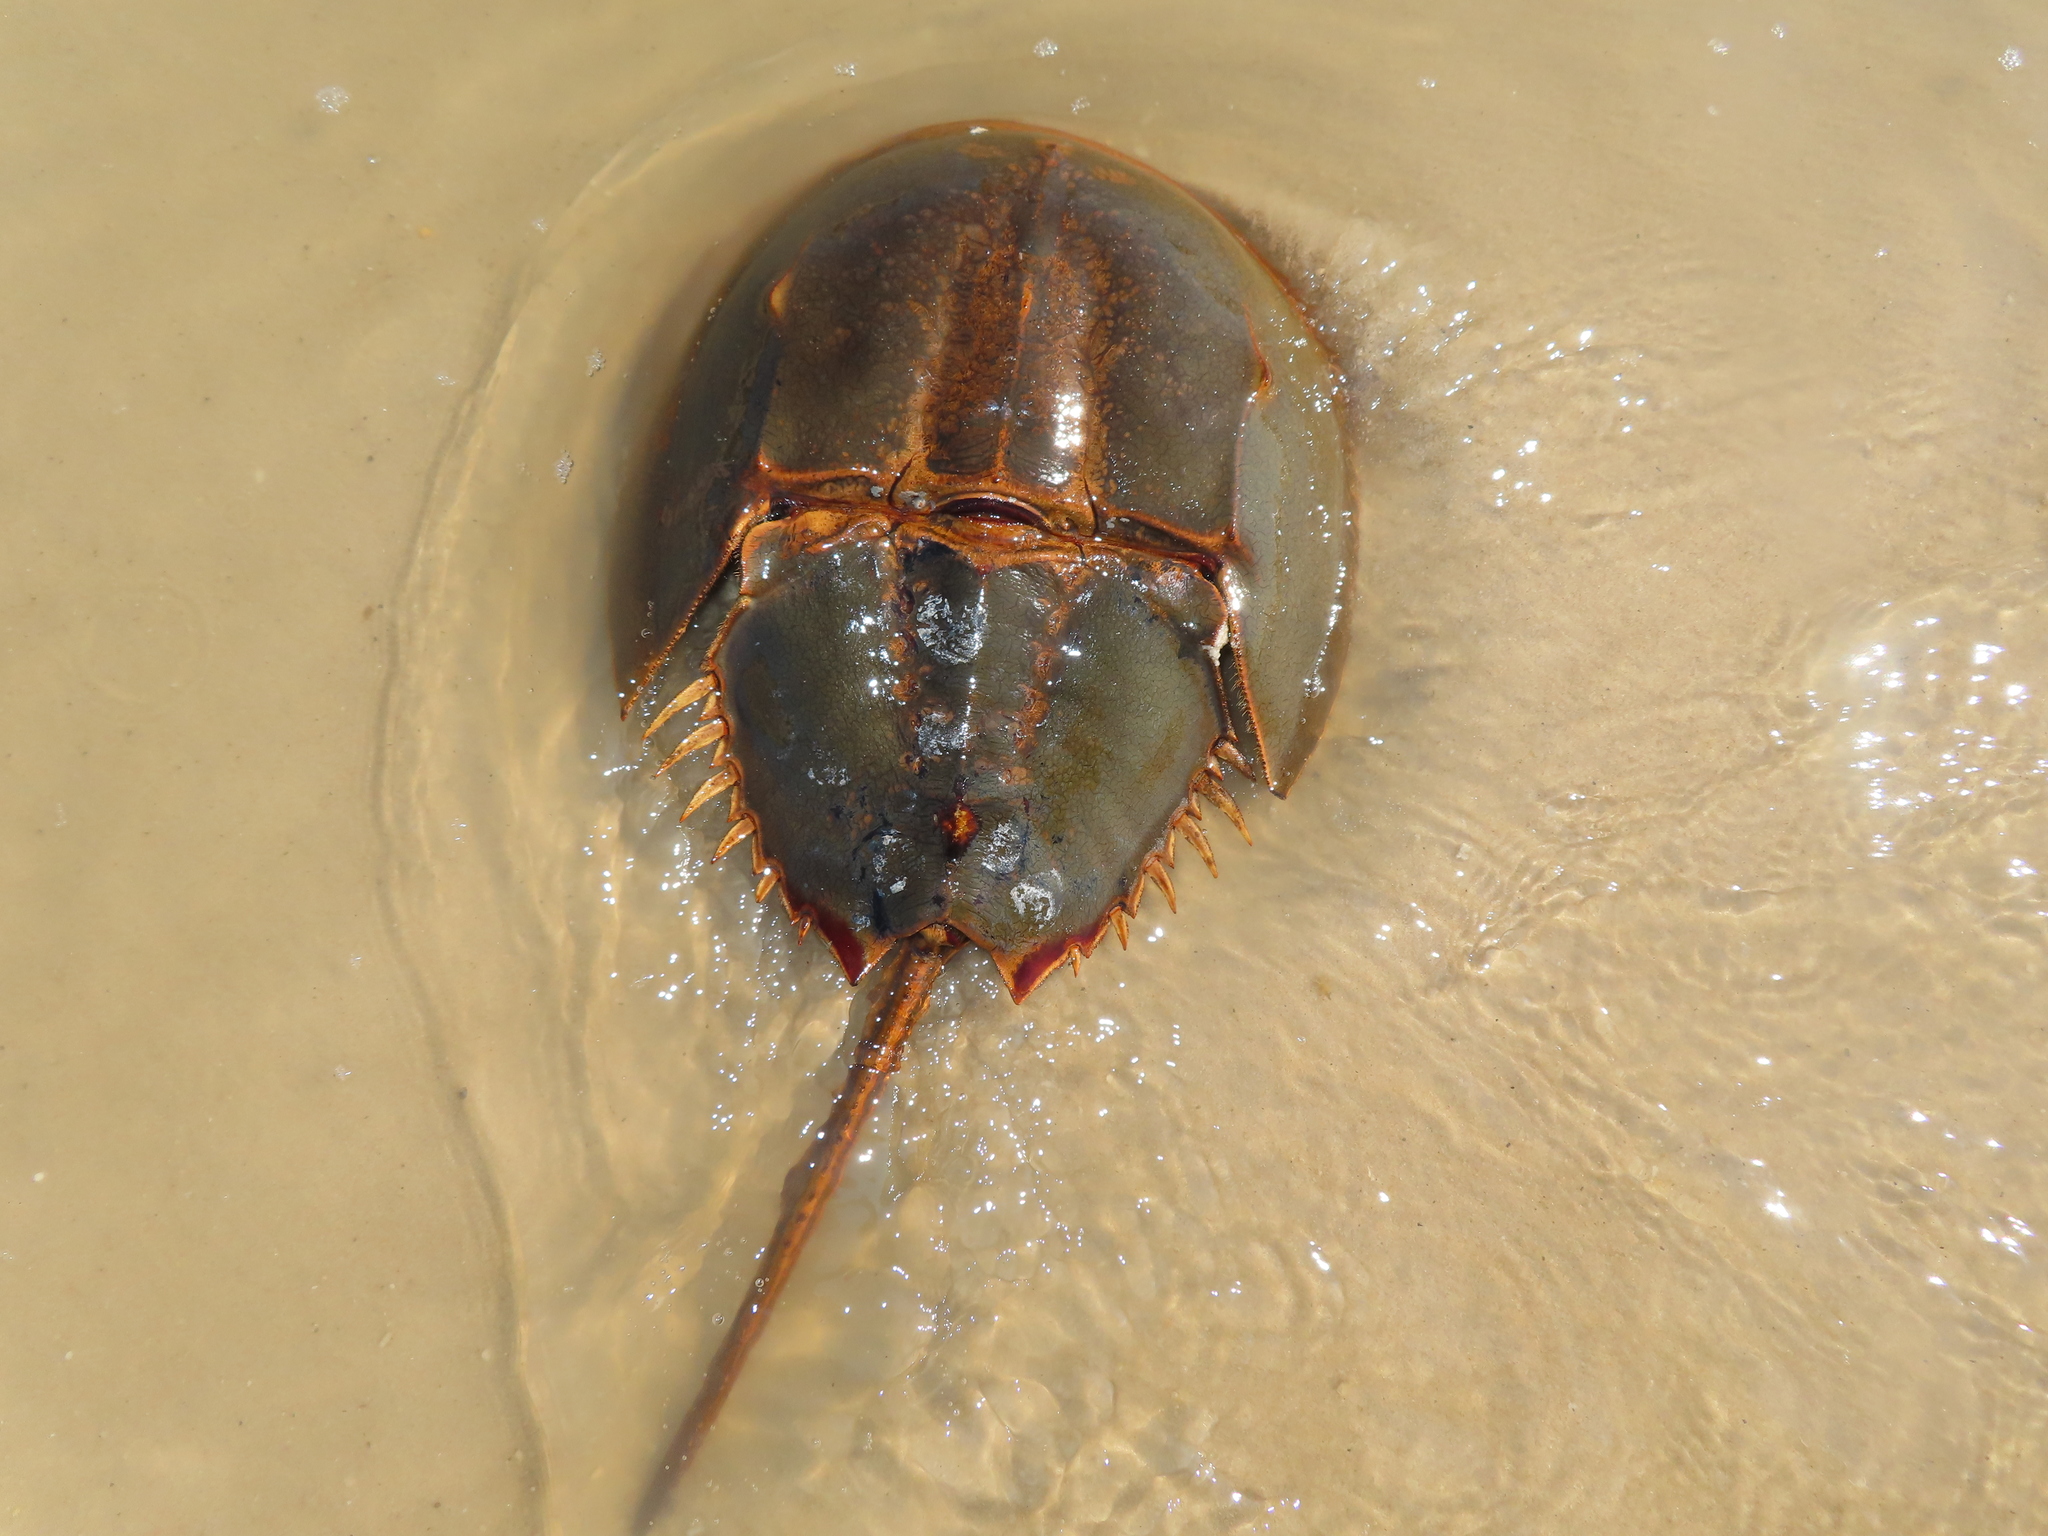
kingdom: Animalia
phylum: Arthropoda
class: Merostomata
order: Xiphosurida
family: Limulidae
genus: Limulus
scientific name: Limulus polyphemus
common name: Horseshoe crab
